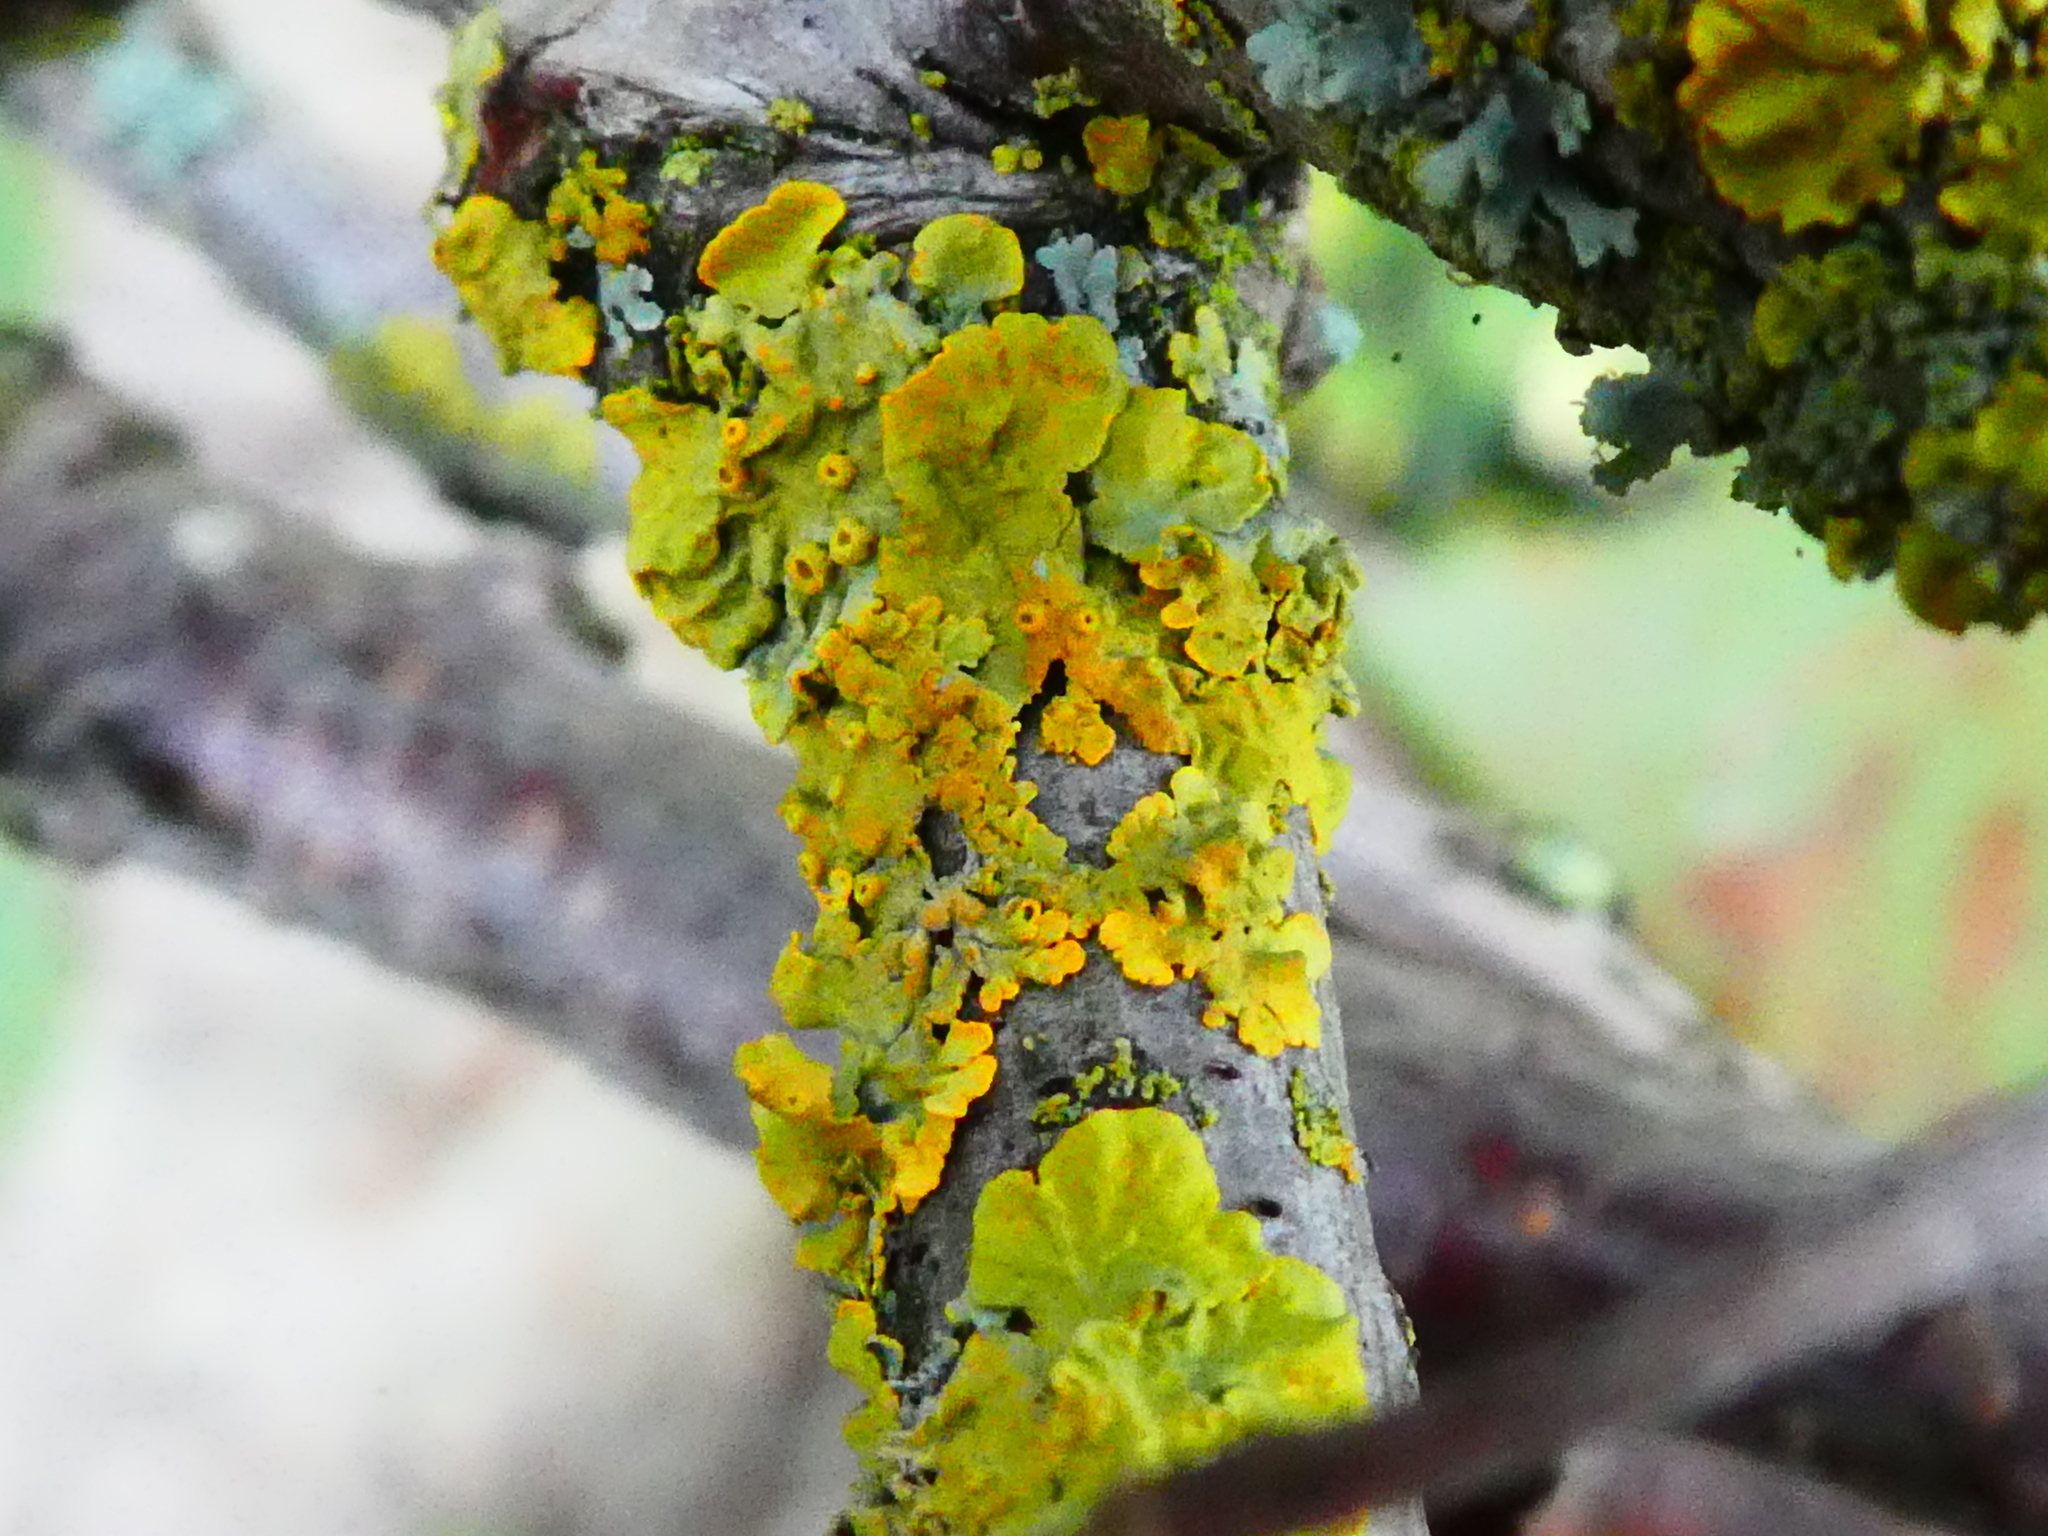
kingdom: Fungi
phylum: Ascomycota
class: Lecanoromycetes
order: Teloschistales
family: Teloschistaceae
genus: Xanthoria
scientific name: Xanthoria parietina
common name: Common orange lichen
